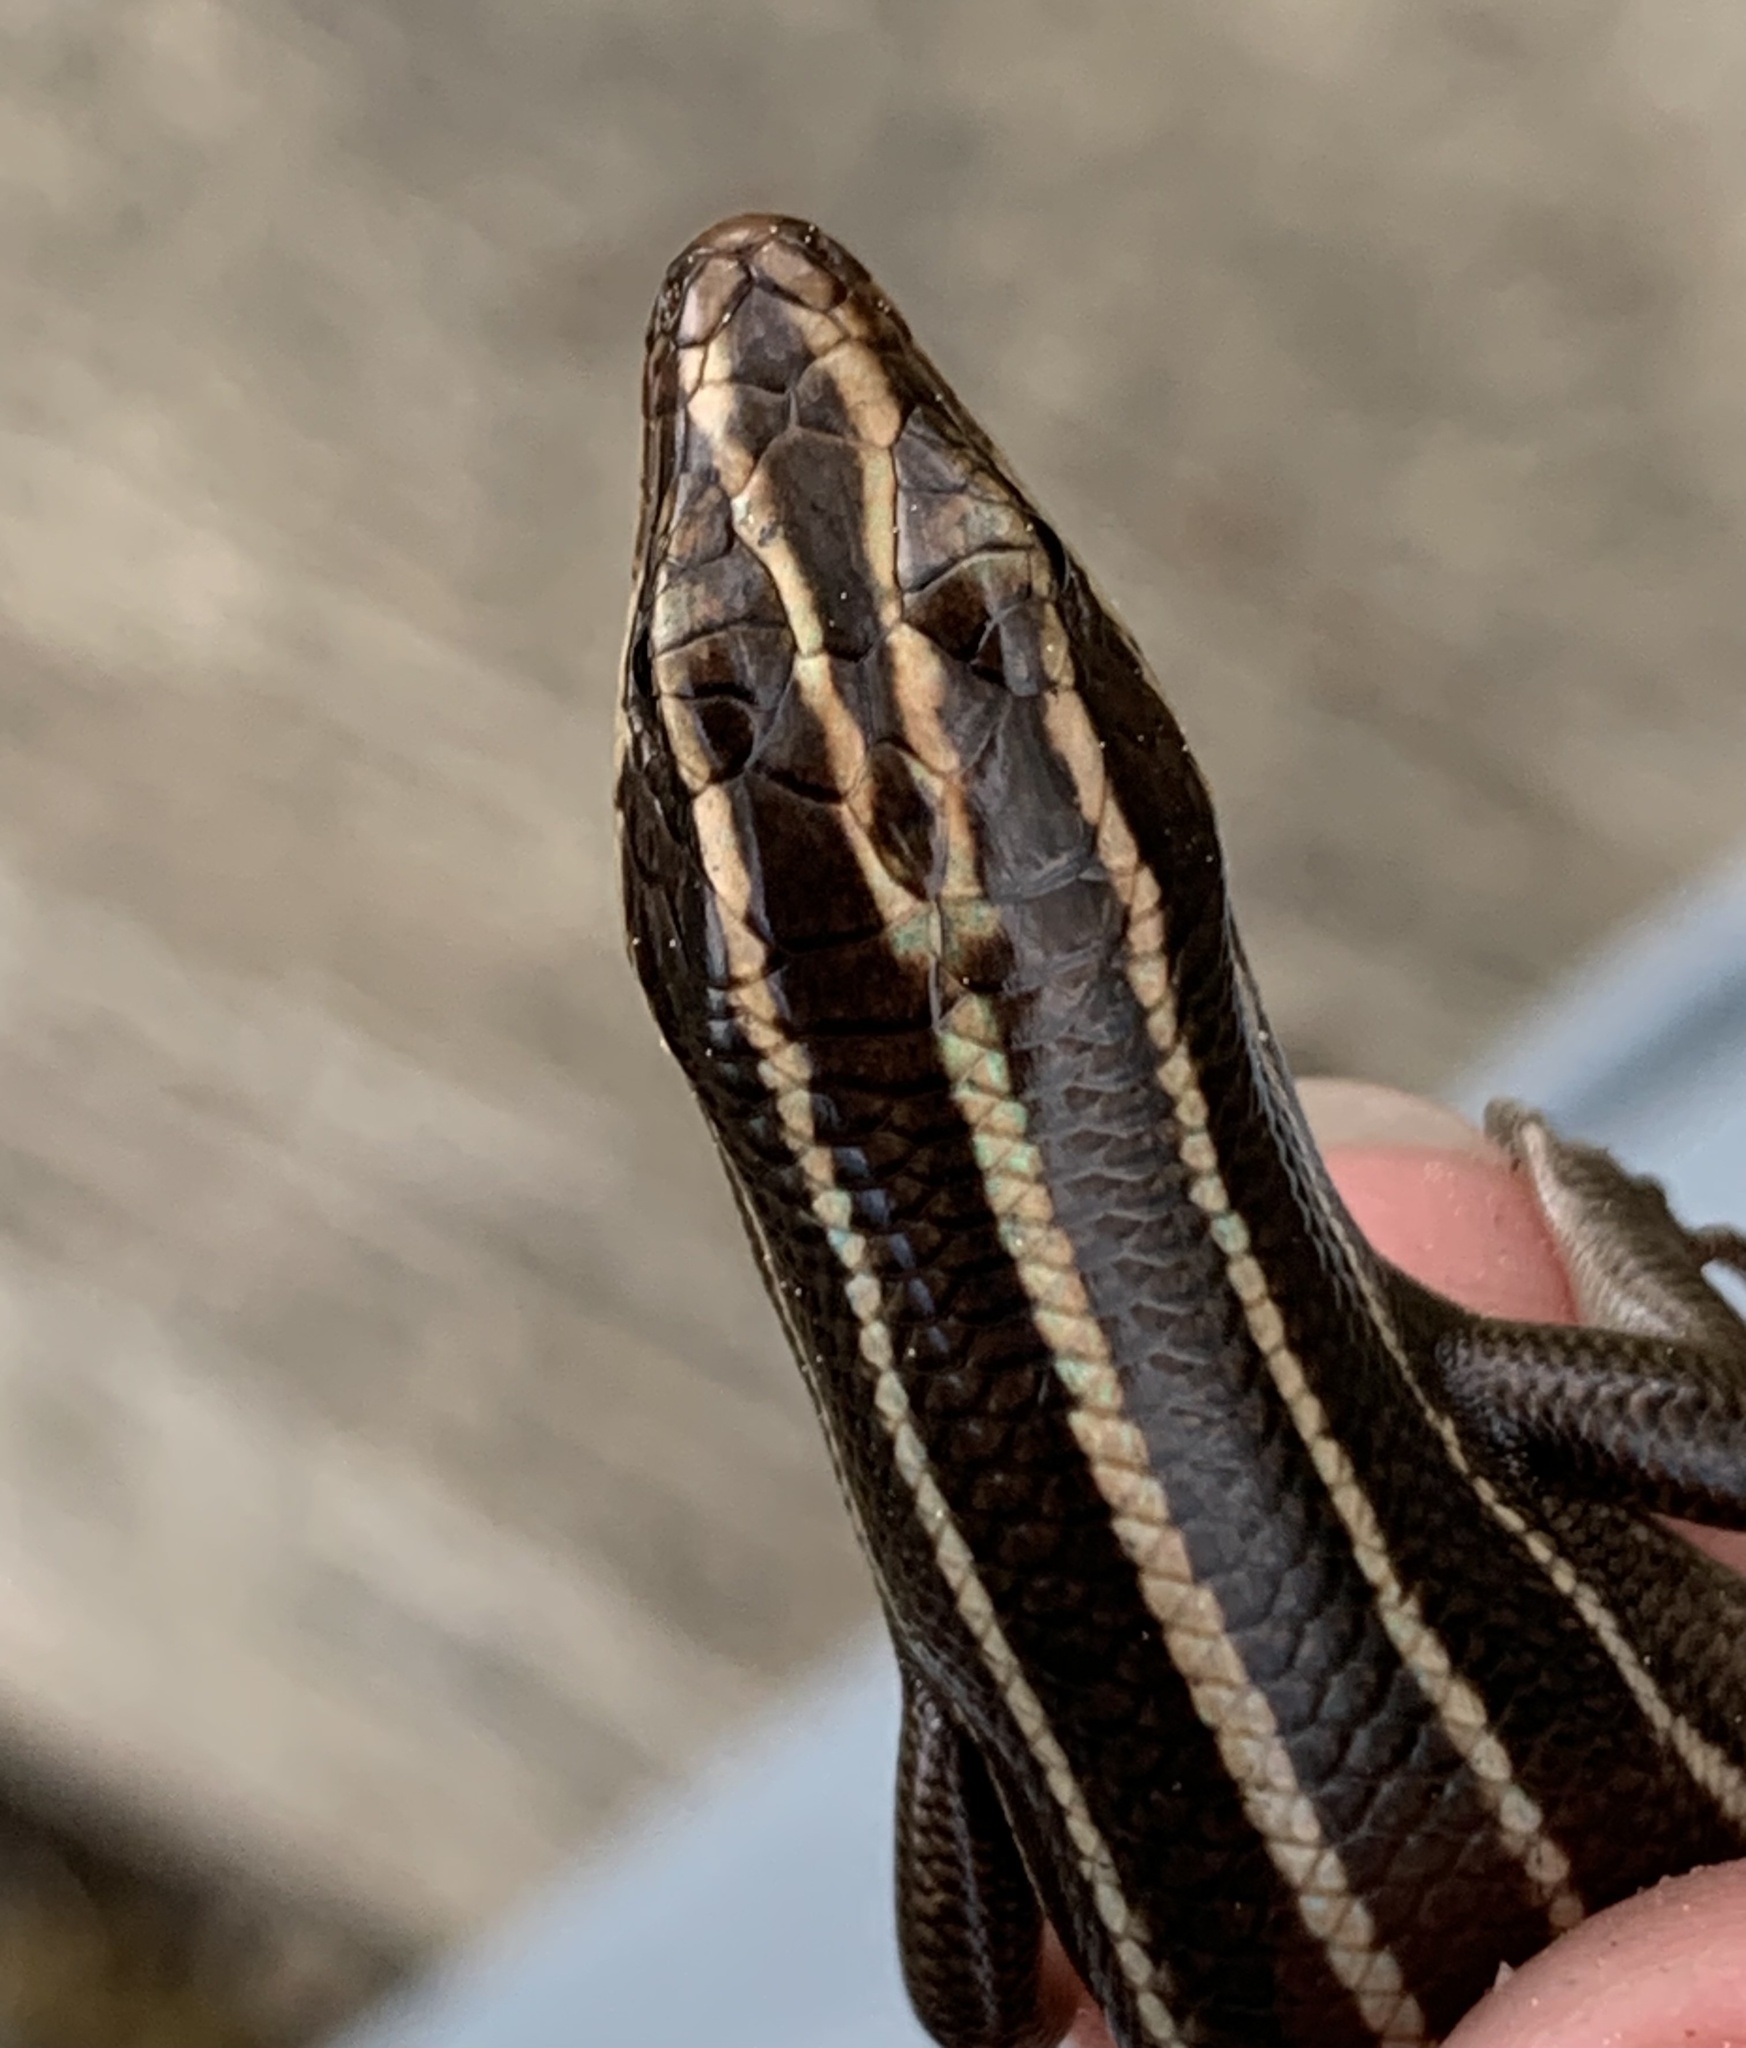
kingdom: Animalia
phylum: Chordata
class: Squamata
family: Scincidae
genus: Plestiodon
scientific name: Plestiodon laticeps
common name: Broadhead skink
